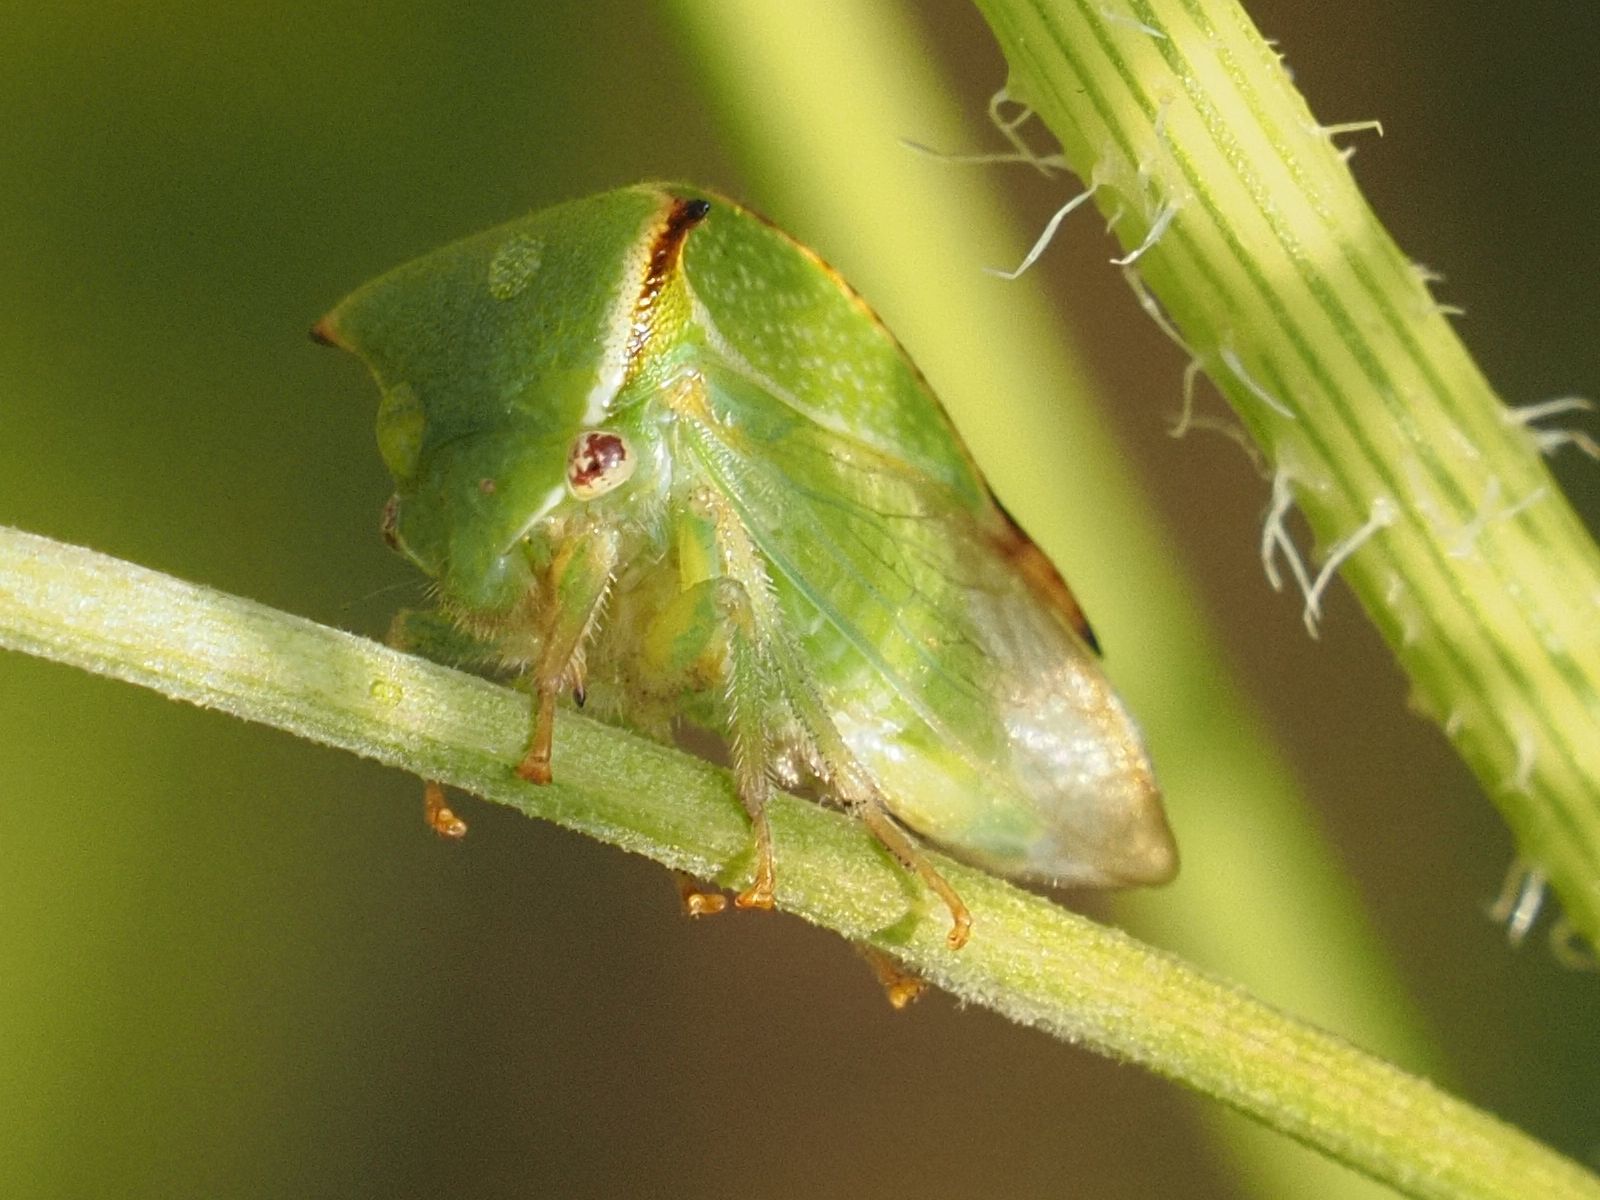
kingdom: Animalia
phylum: Arthropoda
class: Insecta
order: Hemiptera
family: Membracidae
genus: Stictocephala
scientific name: Stictocephala bisonia
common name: American buffalo treehopper
